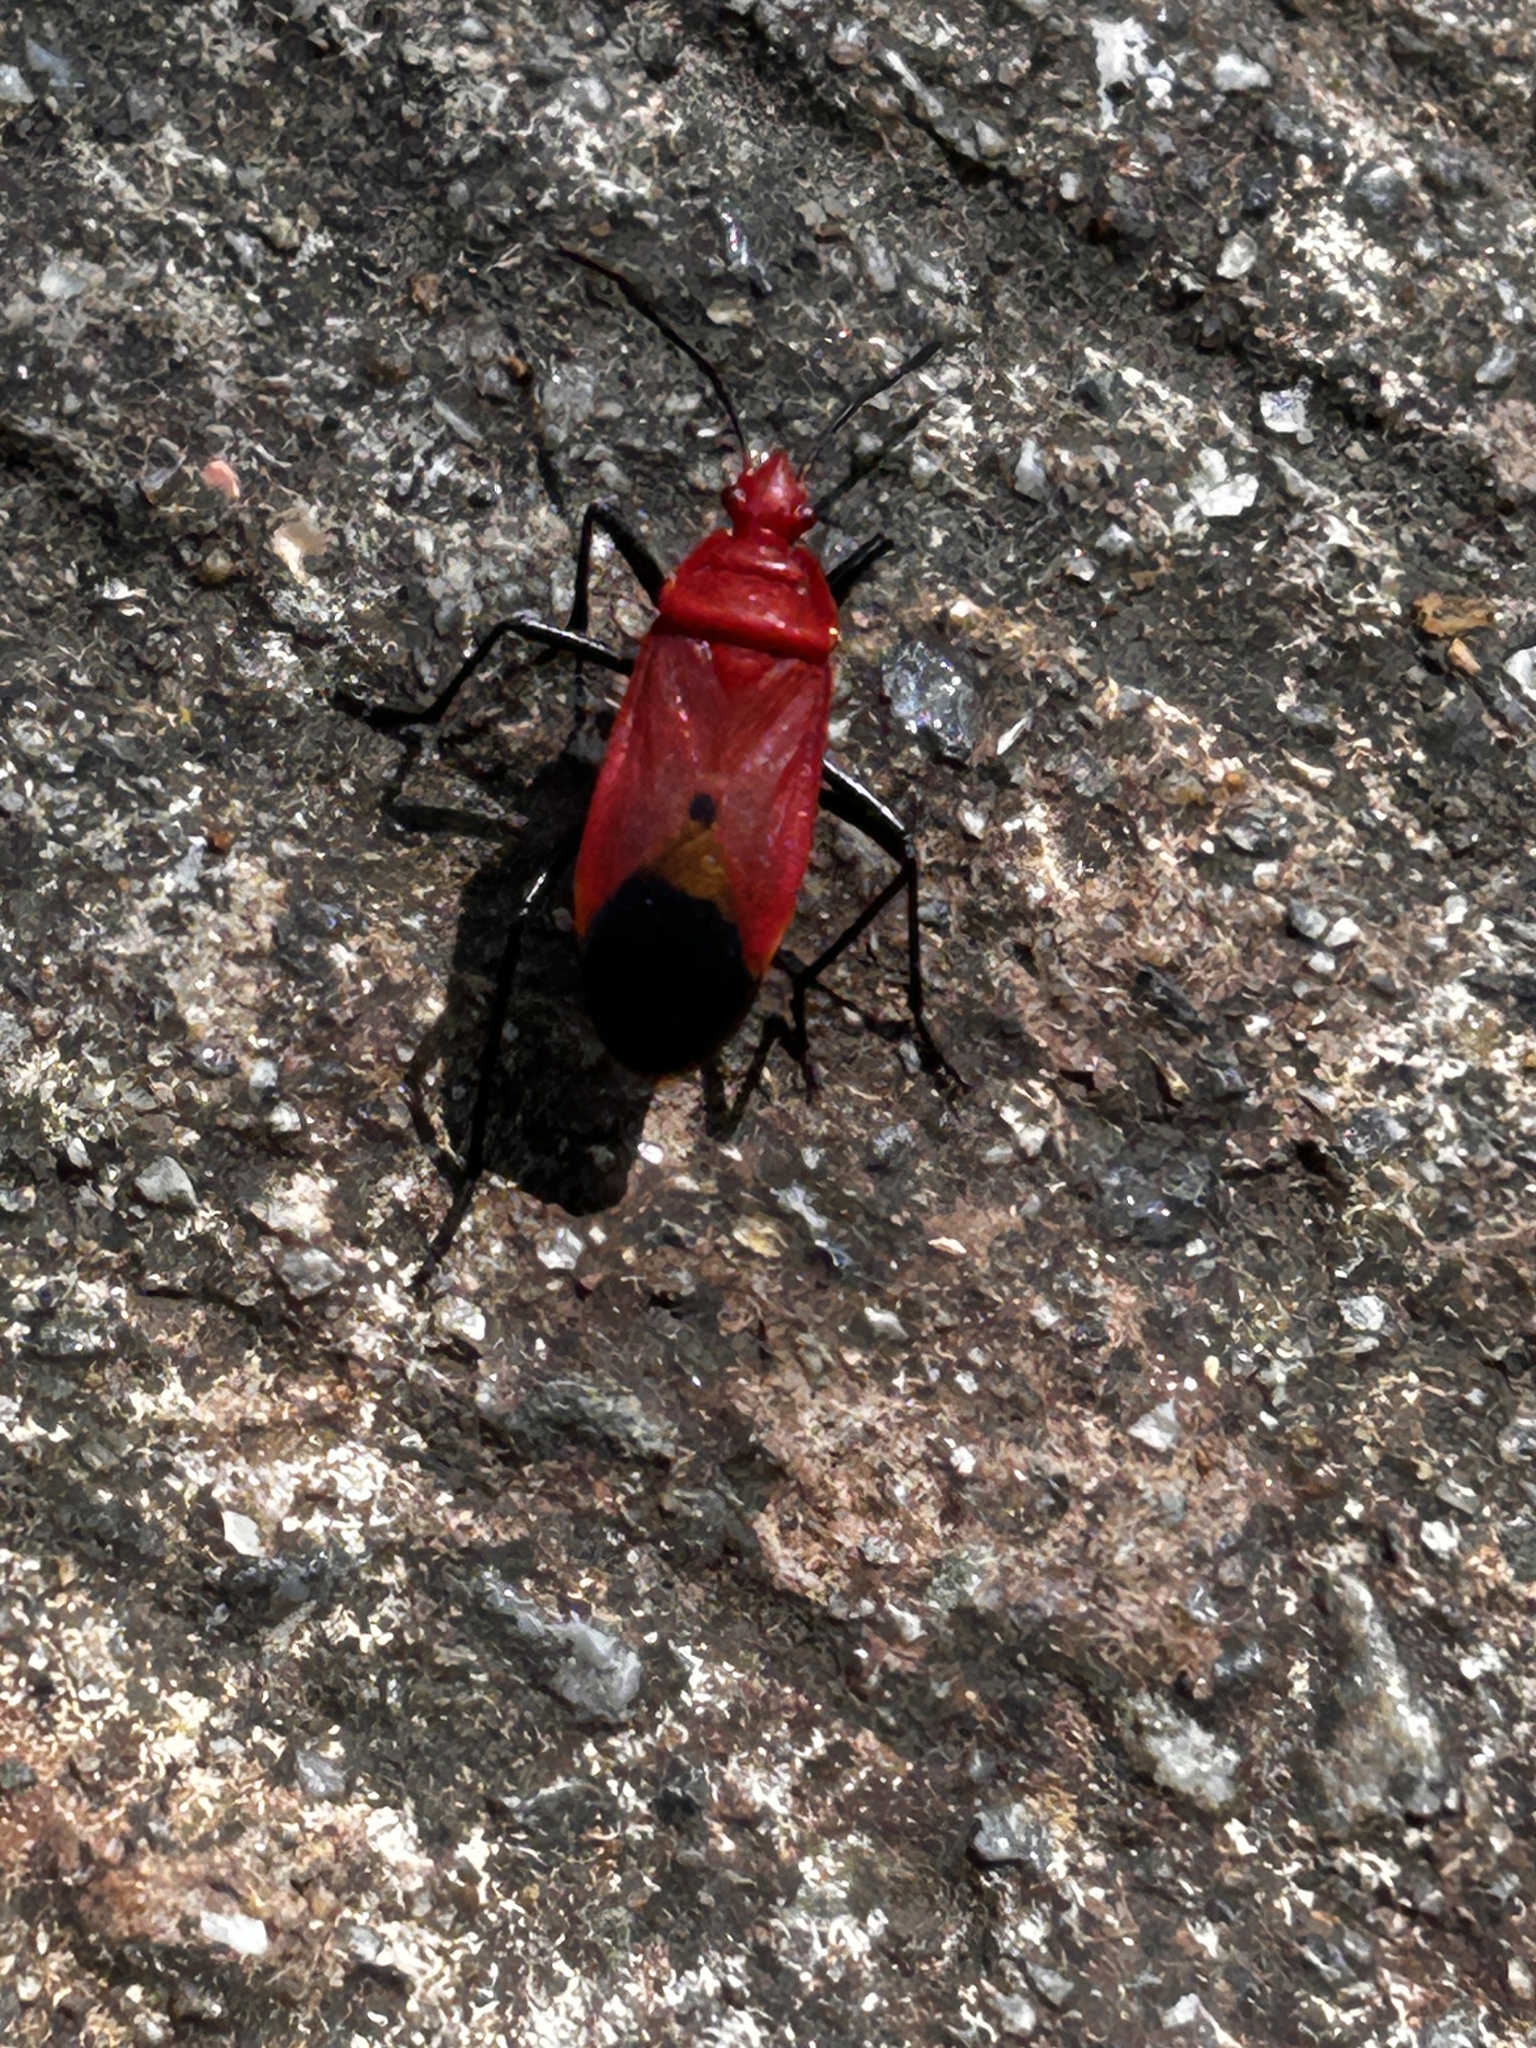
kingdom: Animalia
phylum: Arthropoda
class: Insecta
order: Hemiptera
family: Pyrrhocoridae
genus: Dindymus
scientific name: Dindymus
